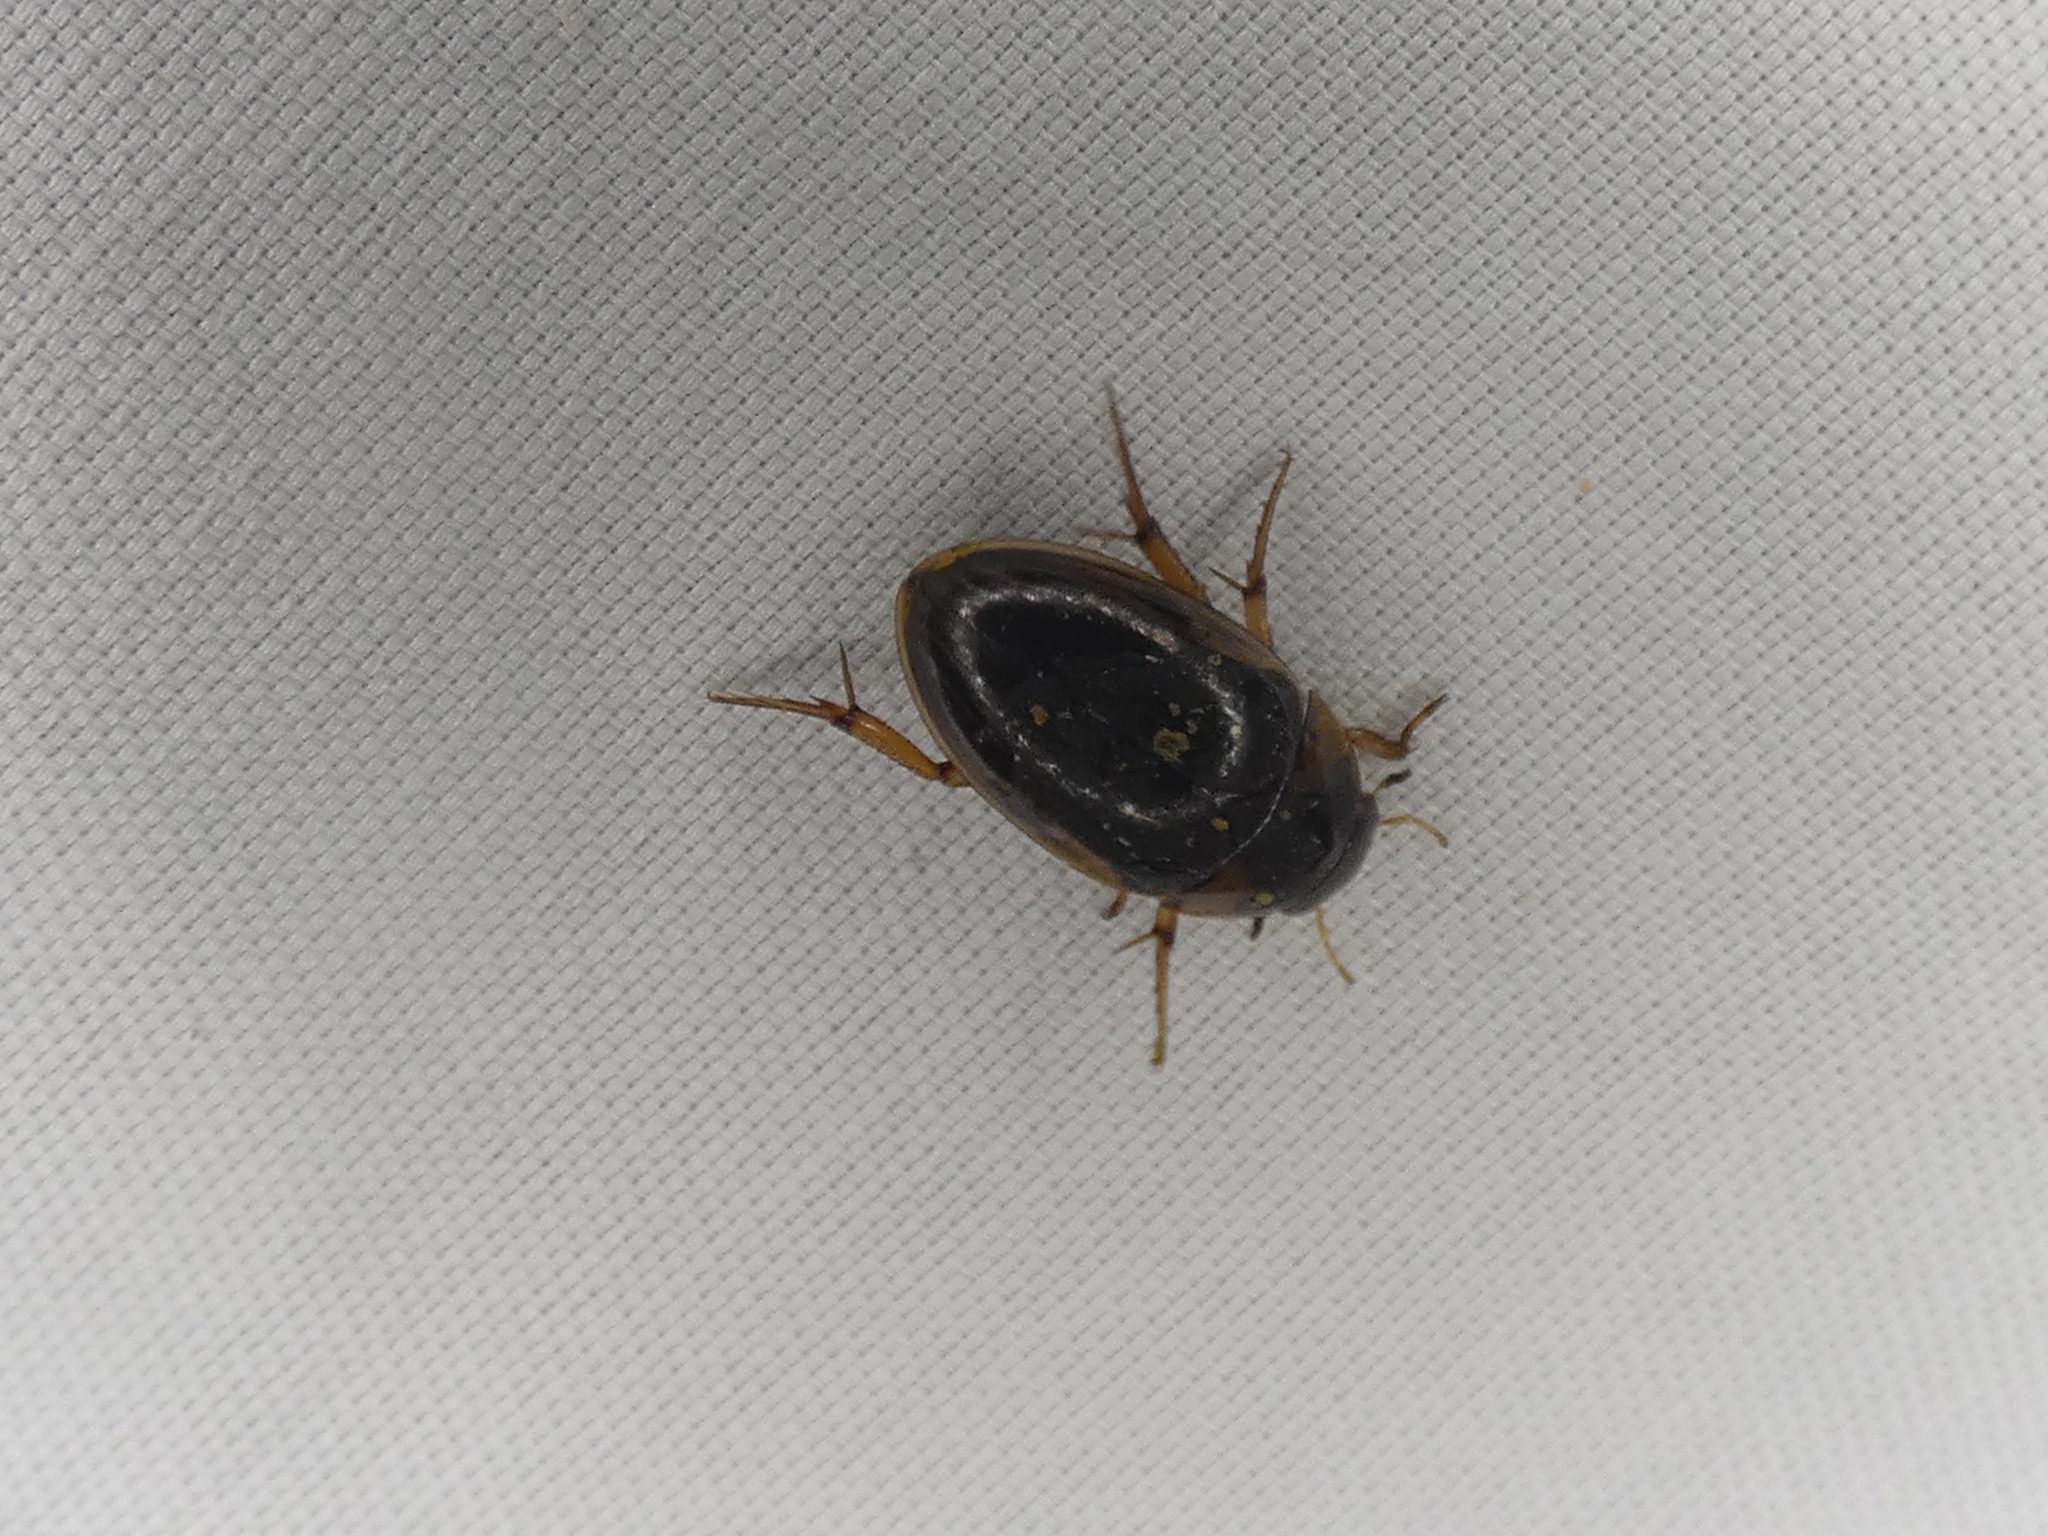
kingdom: Animalia
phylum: Arthropoda
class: Insecta
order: Coleoptera
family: Hydrophilidae
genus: Tropisternus
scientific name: Tropisternus collaris
